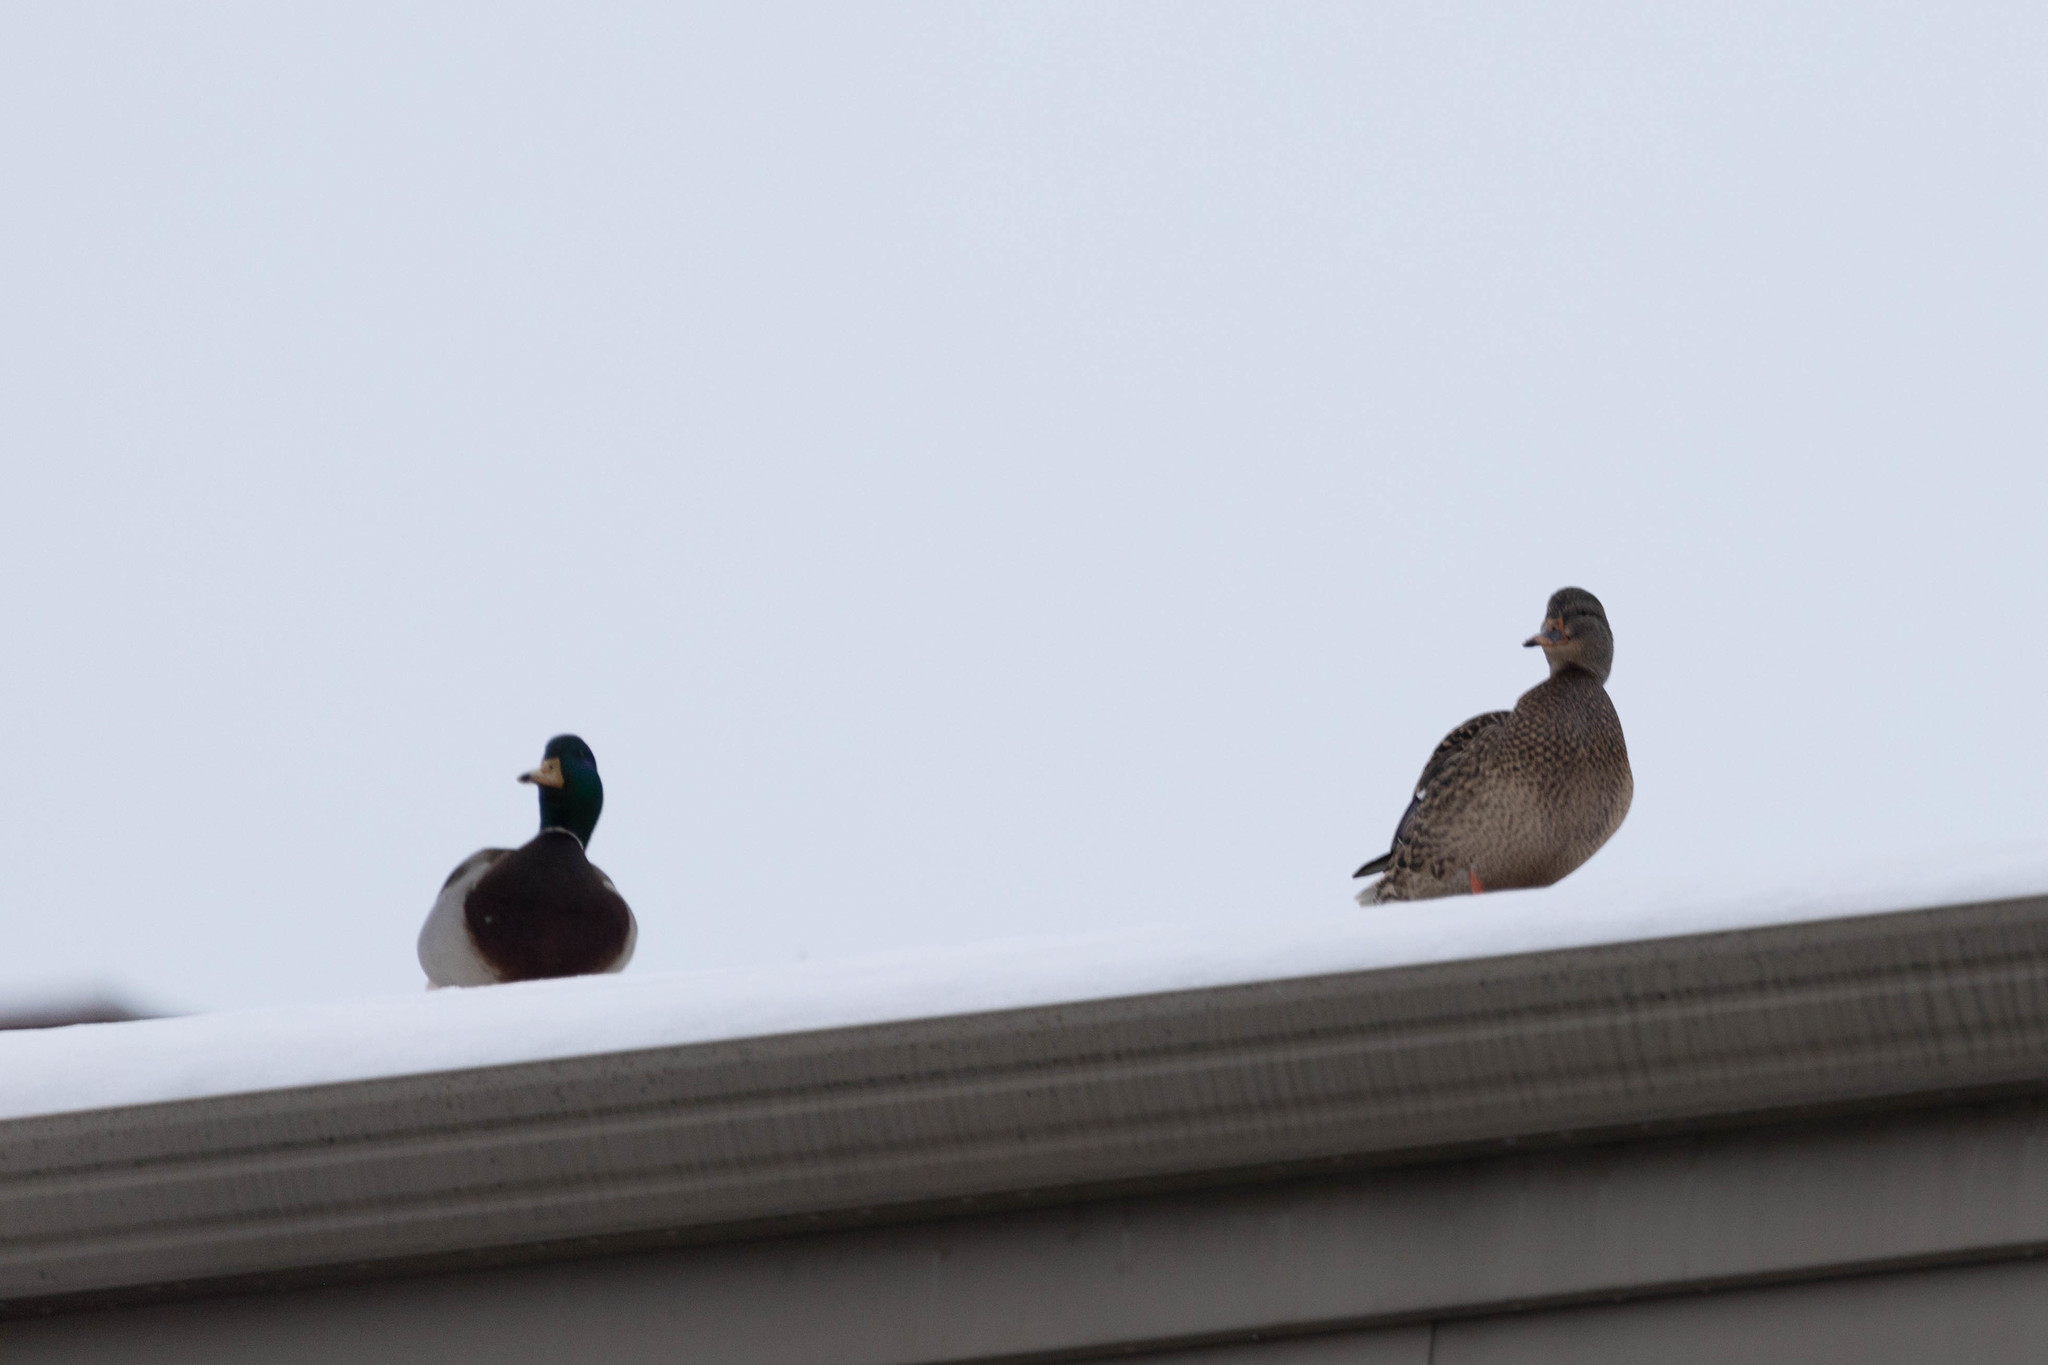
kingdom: Animalia
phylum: Chordata
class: Aves
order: Anseriformes
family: Anatidae
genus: Anas
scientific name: Anas platyrhynchos
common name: Mallard
